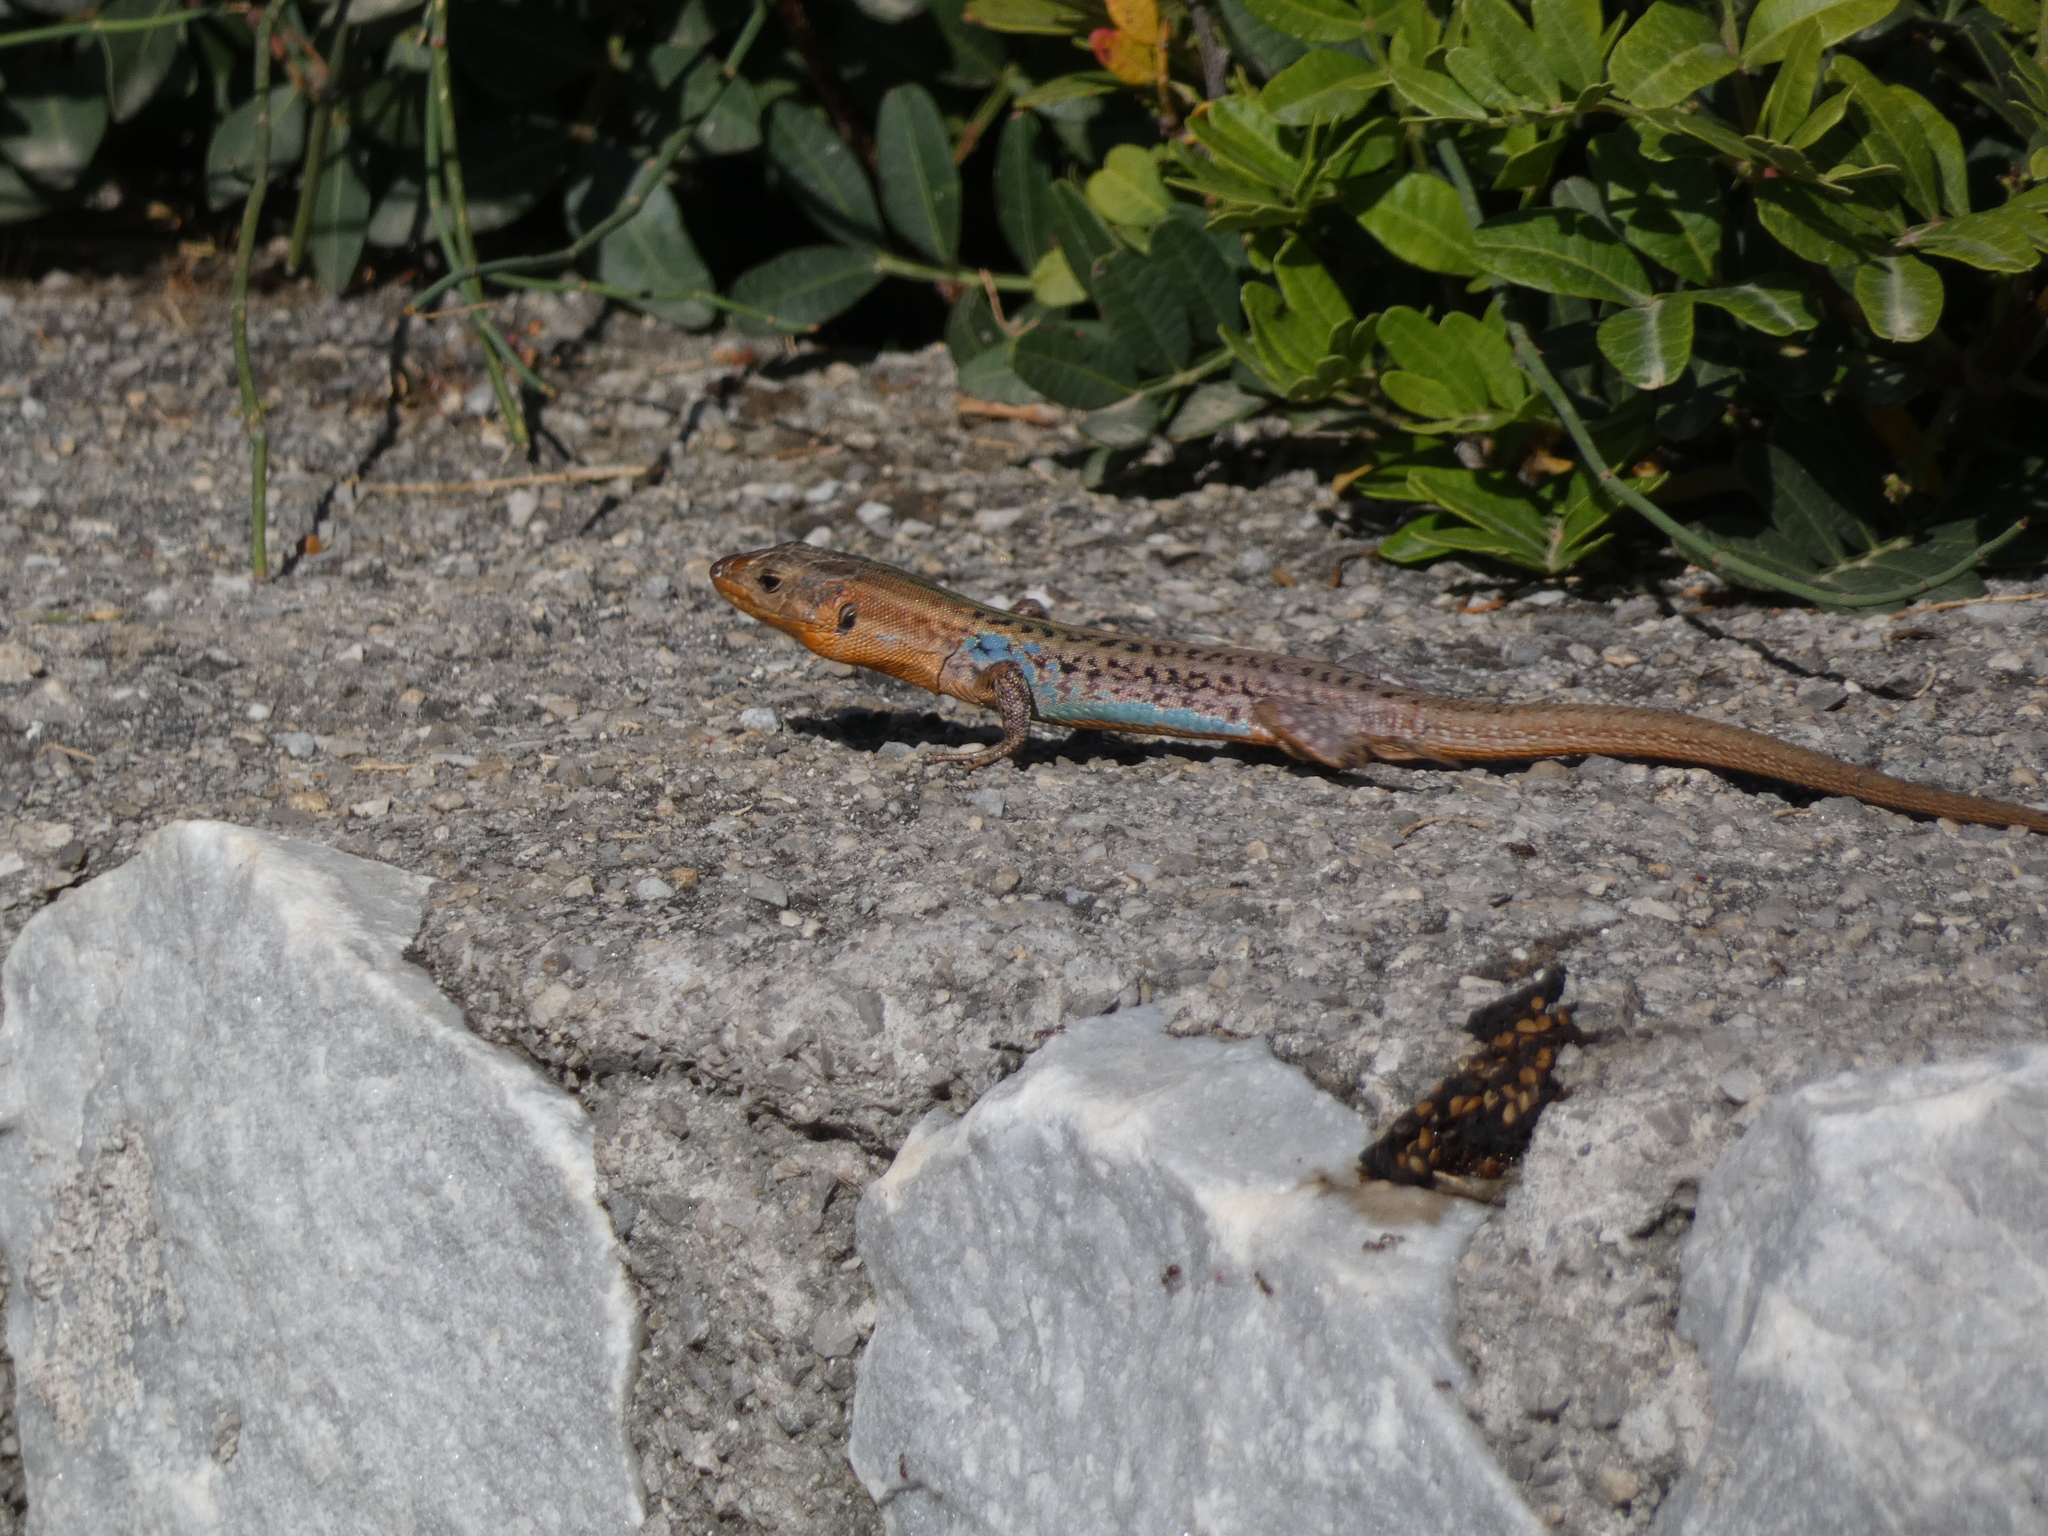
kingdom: Animalia
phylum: Chordata
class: Squamata
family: Lacertidae
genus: Podarcis
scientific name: Podarcis peloponnesiacus
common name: Peloponnese wall lizard
